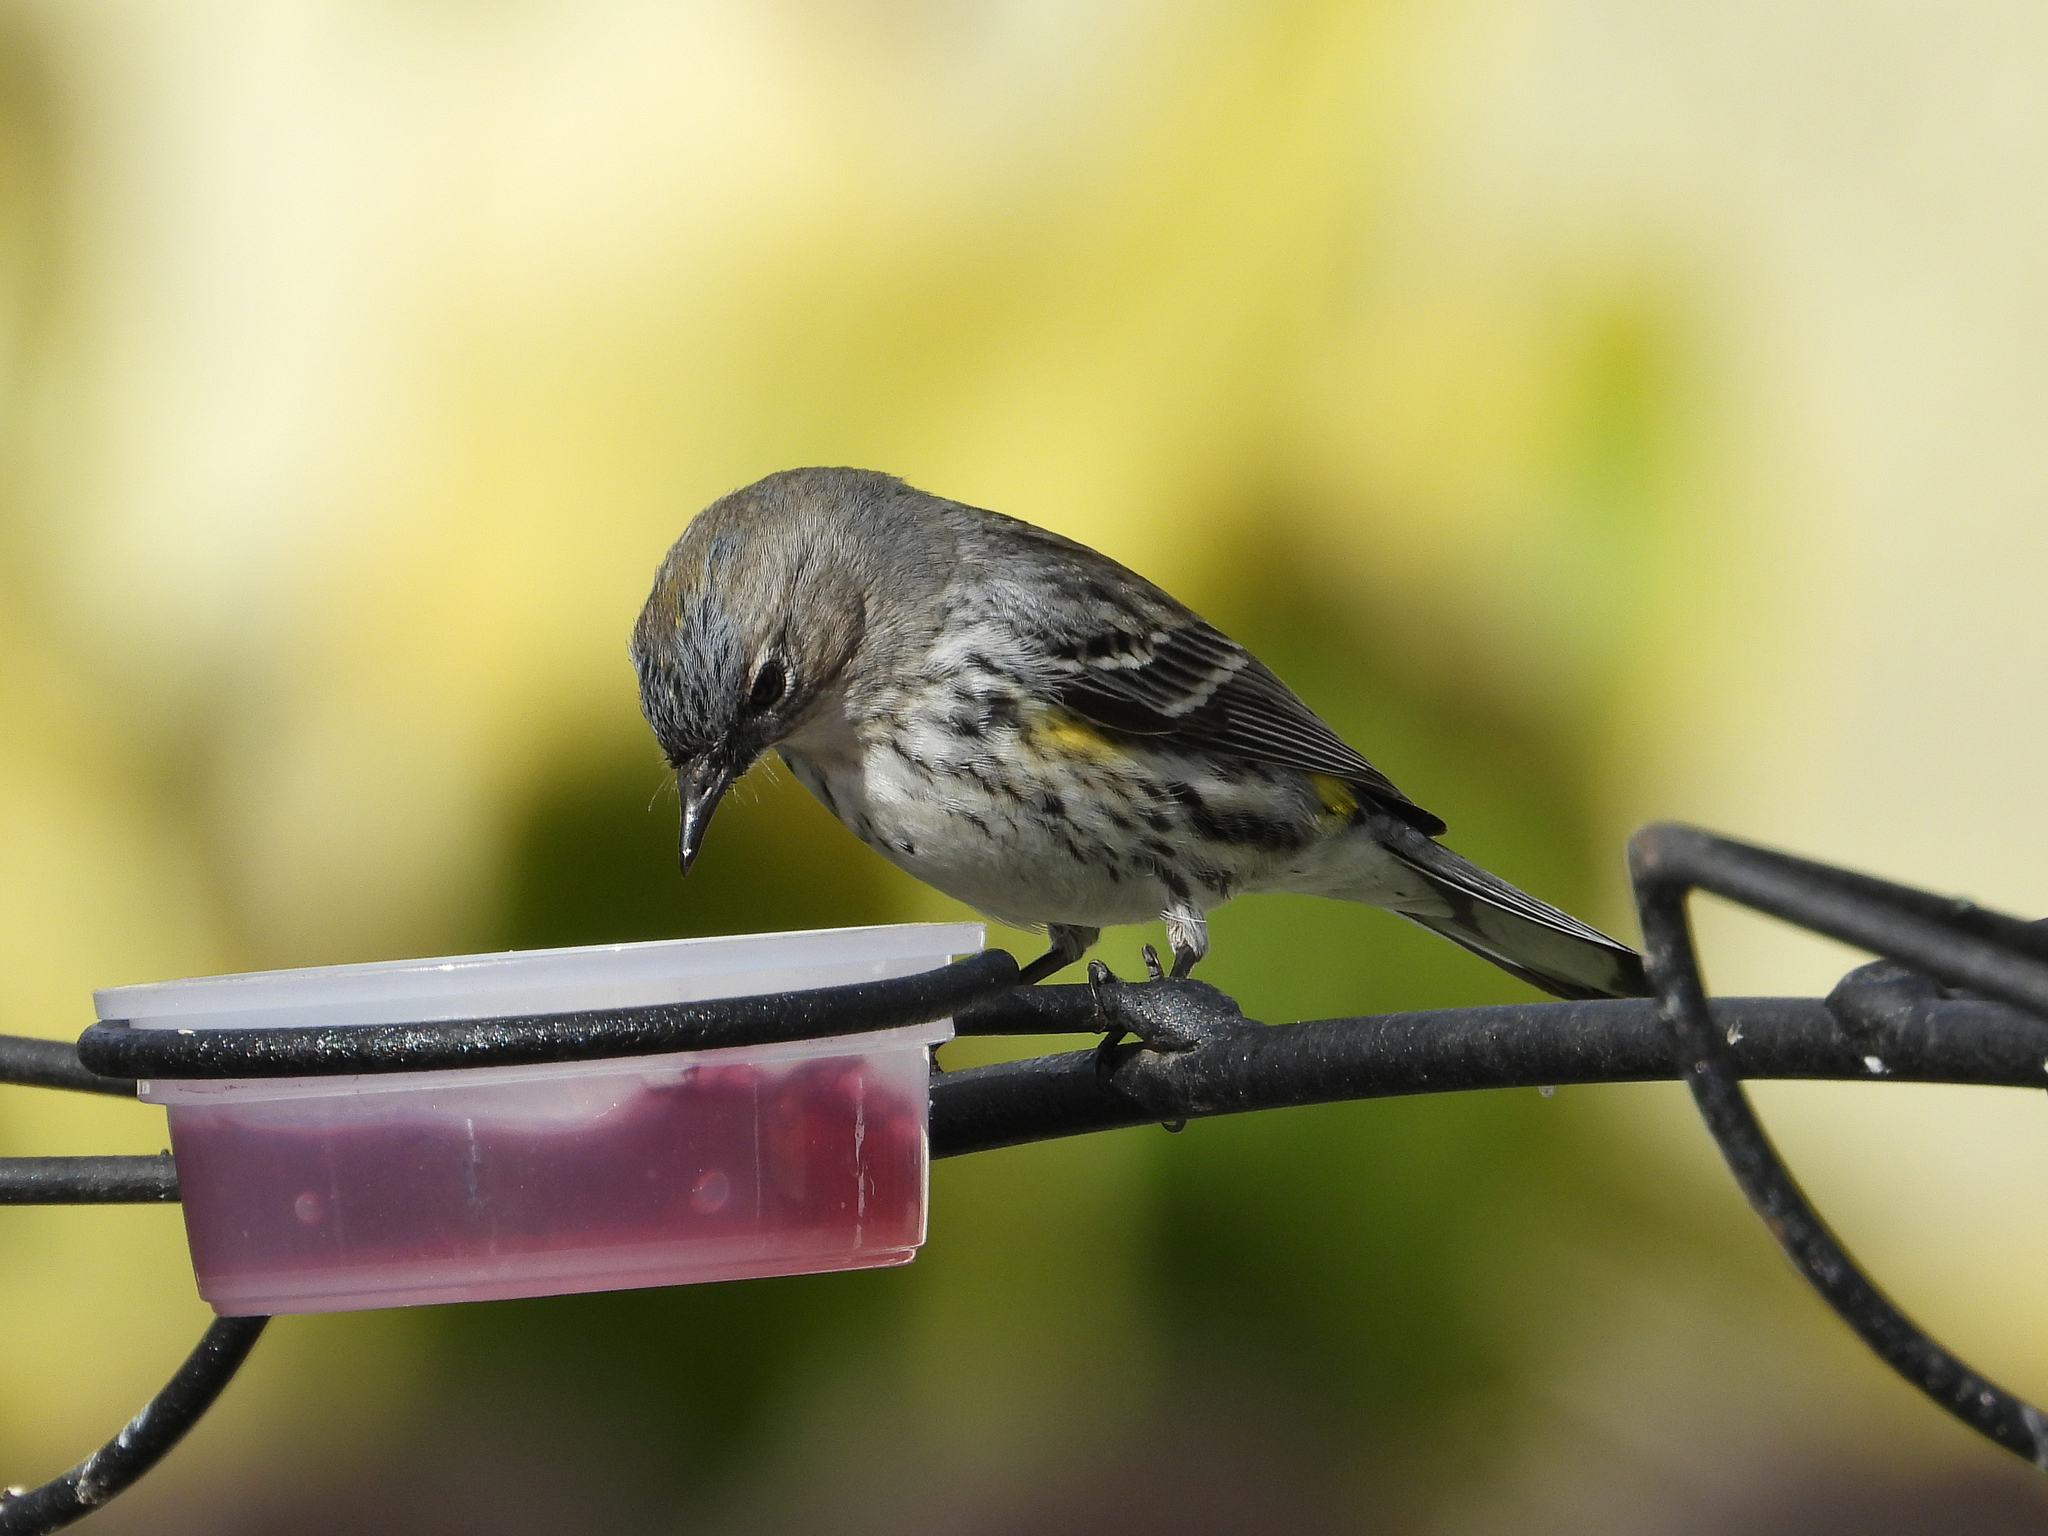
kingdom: Animalia
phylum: Chordata
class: Aves
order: Passeriformes
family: Parulidae
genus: Setophaga
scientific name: Setophaga coronata
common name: Myrtle warbler
